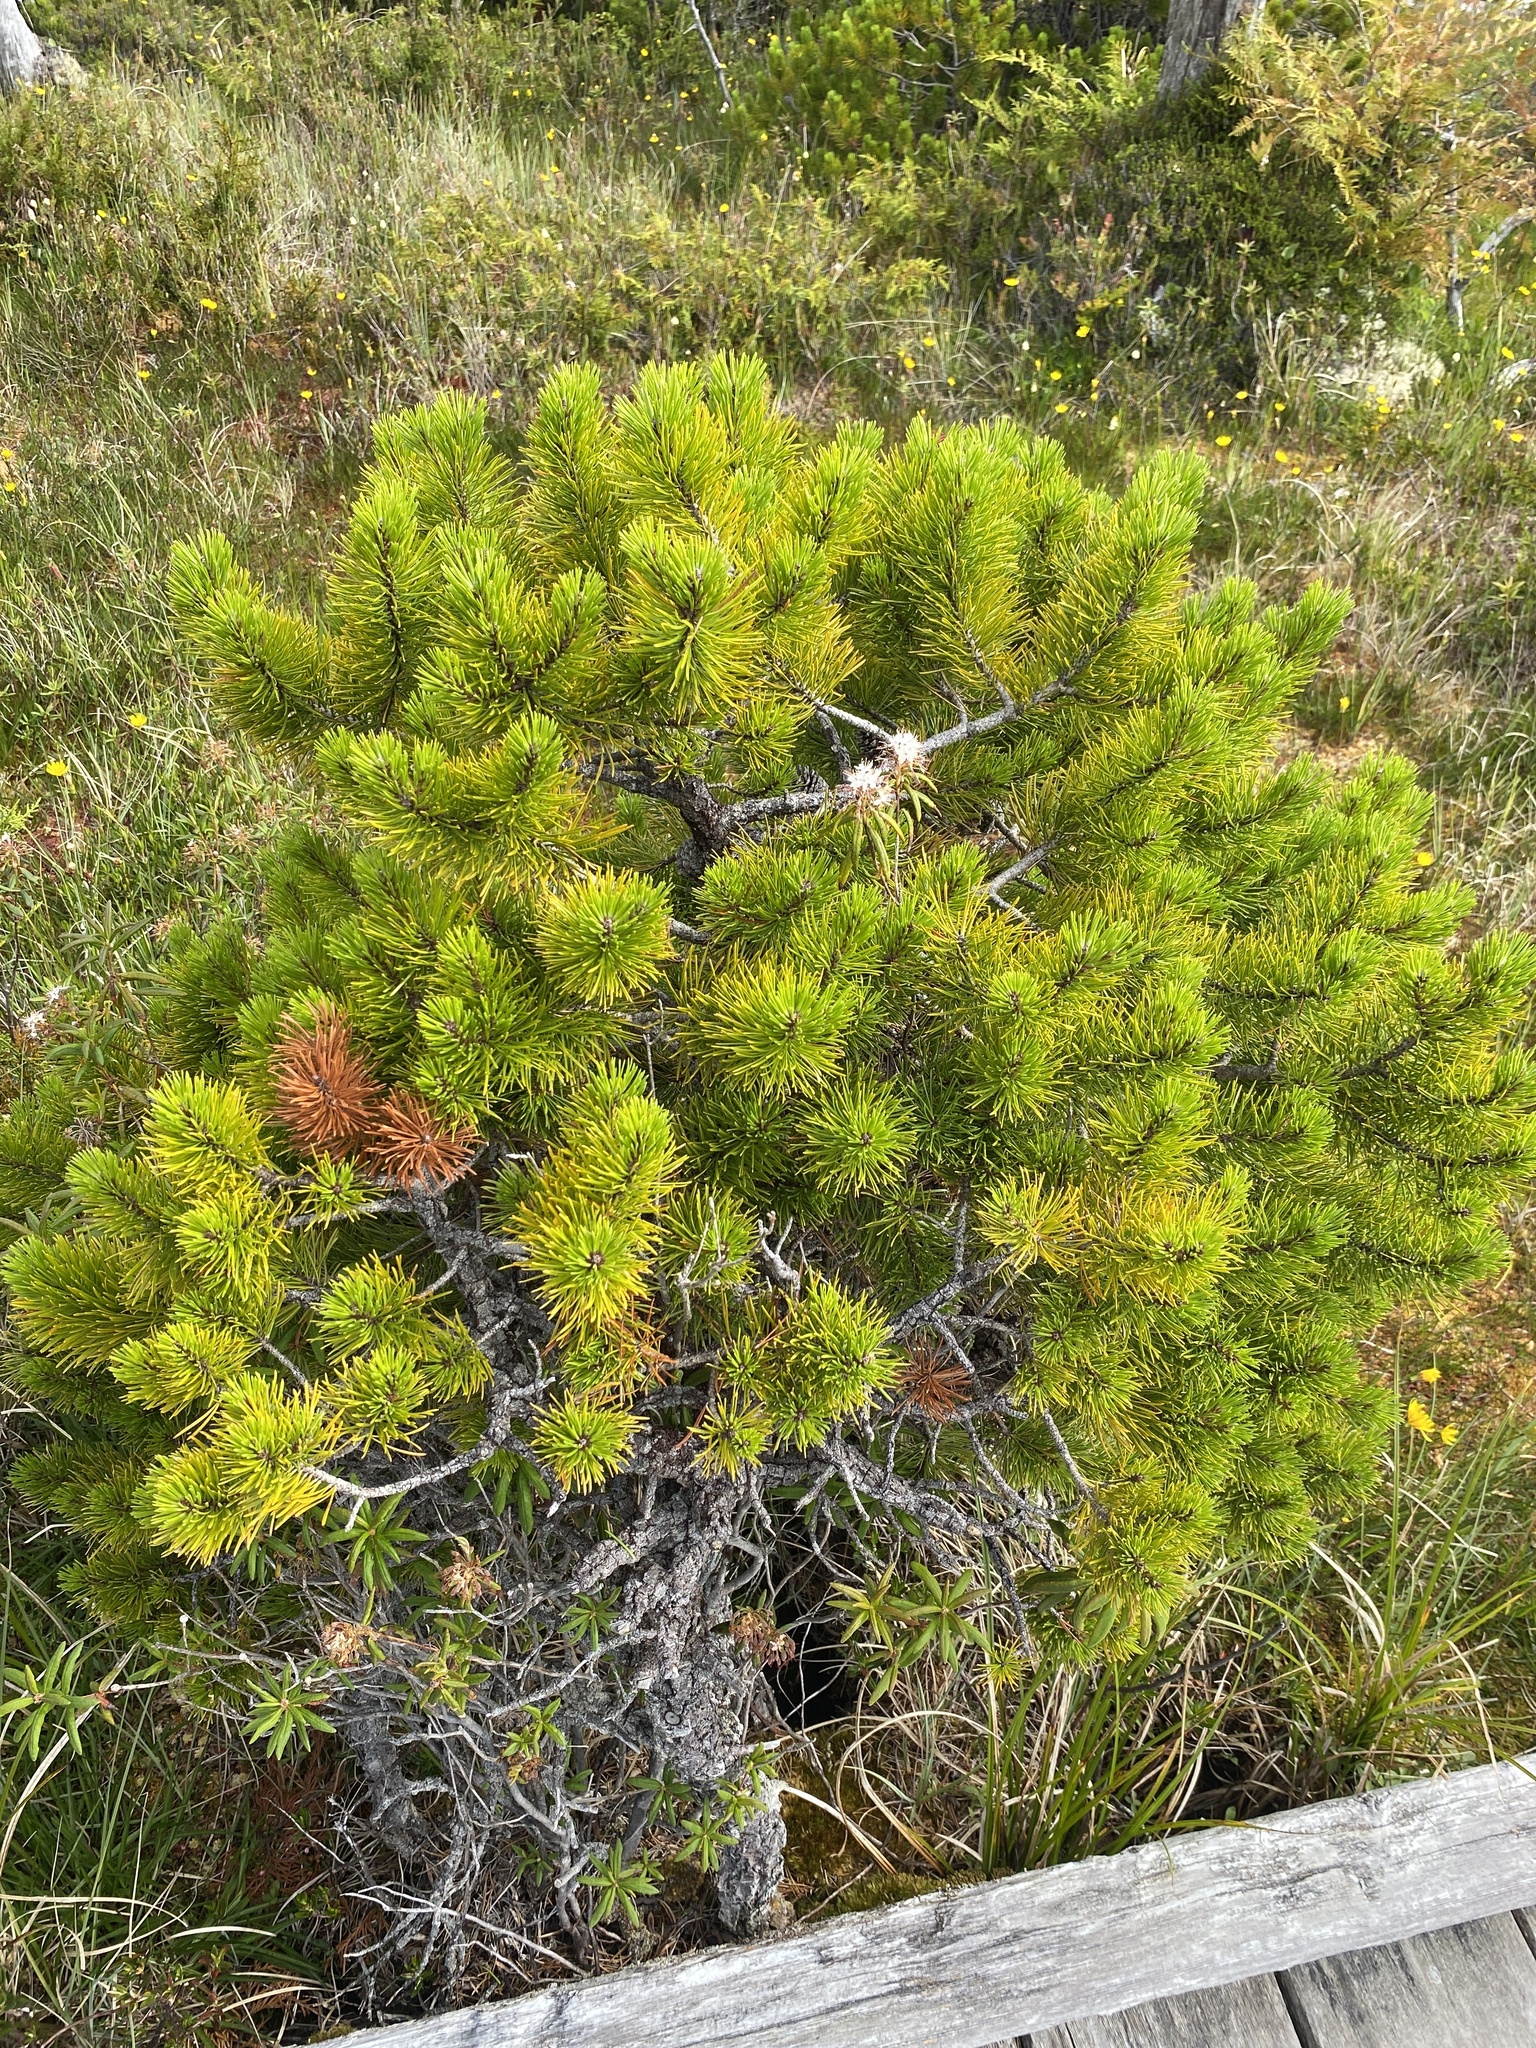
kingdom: Plantae
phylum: Tracheophyta
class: Pinopsida
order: Pinales
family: Pinaceae
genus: Pinus
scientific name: Pinus contorta
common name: Lodgepole pine
